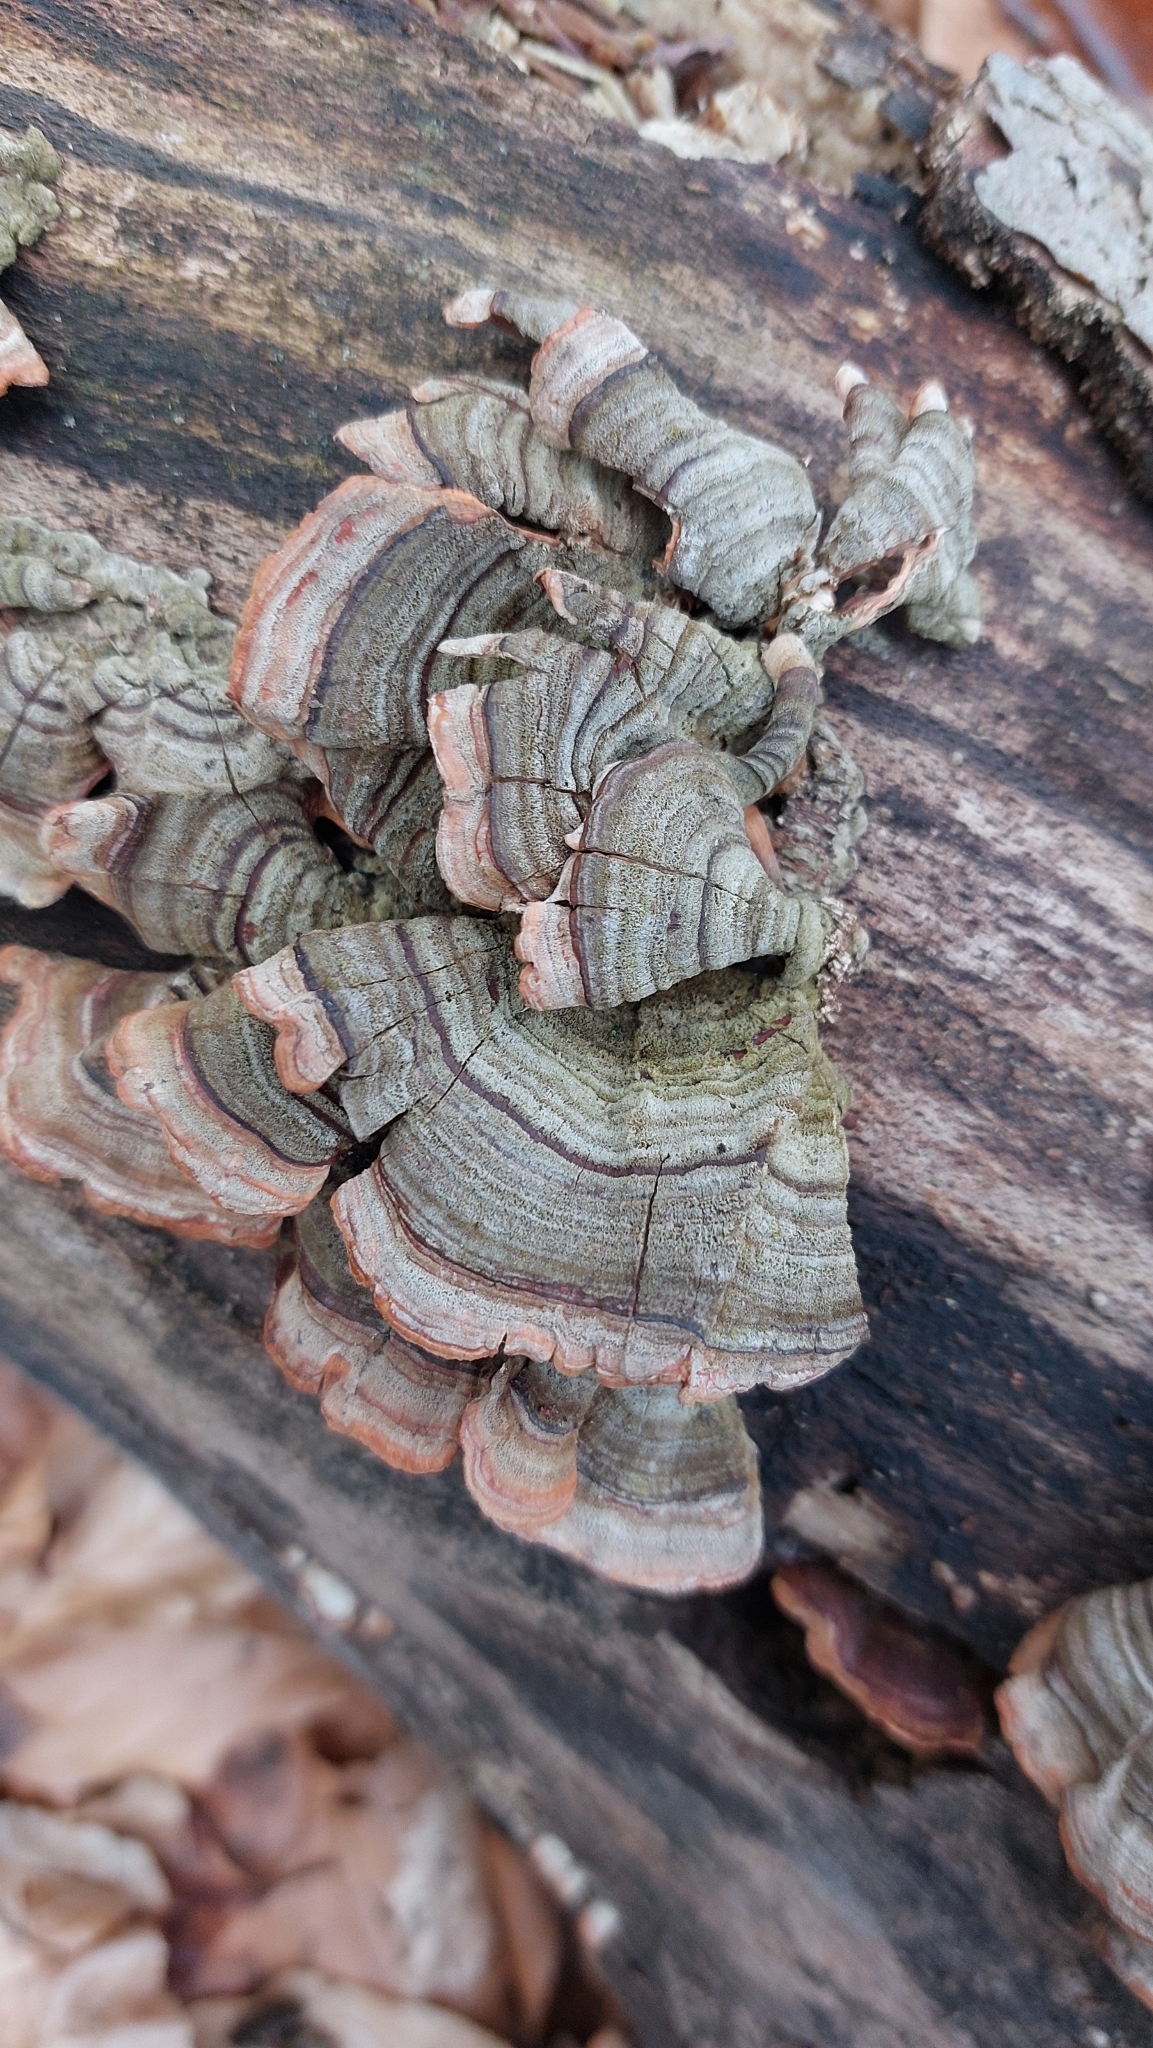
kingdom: Fungi
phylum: Basidiomycota
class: Agaricomycetes
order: Russulales
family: Stereaceae
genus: Stereum
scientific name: Stereum subtomentosum
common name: Yellowing curtain crust
